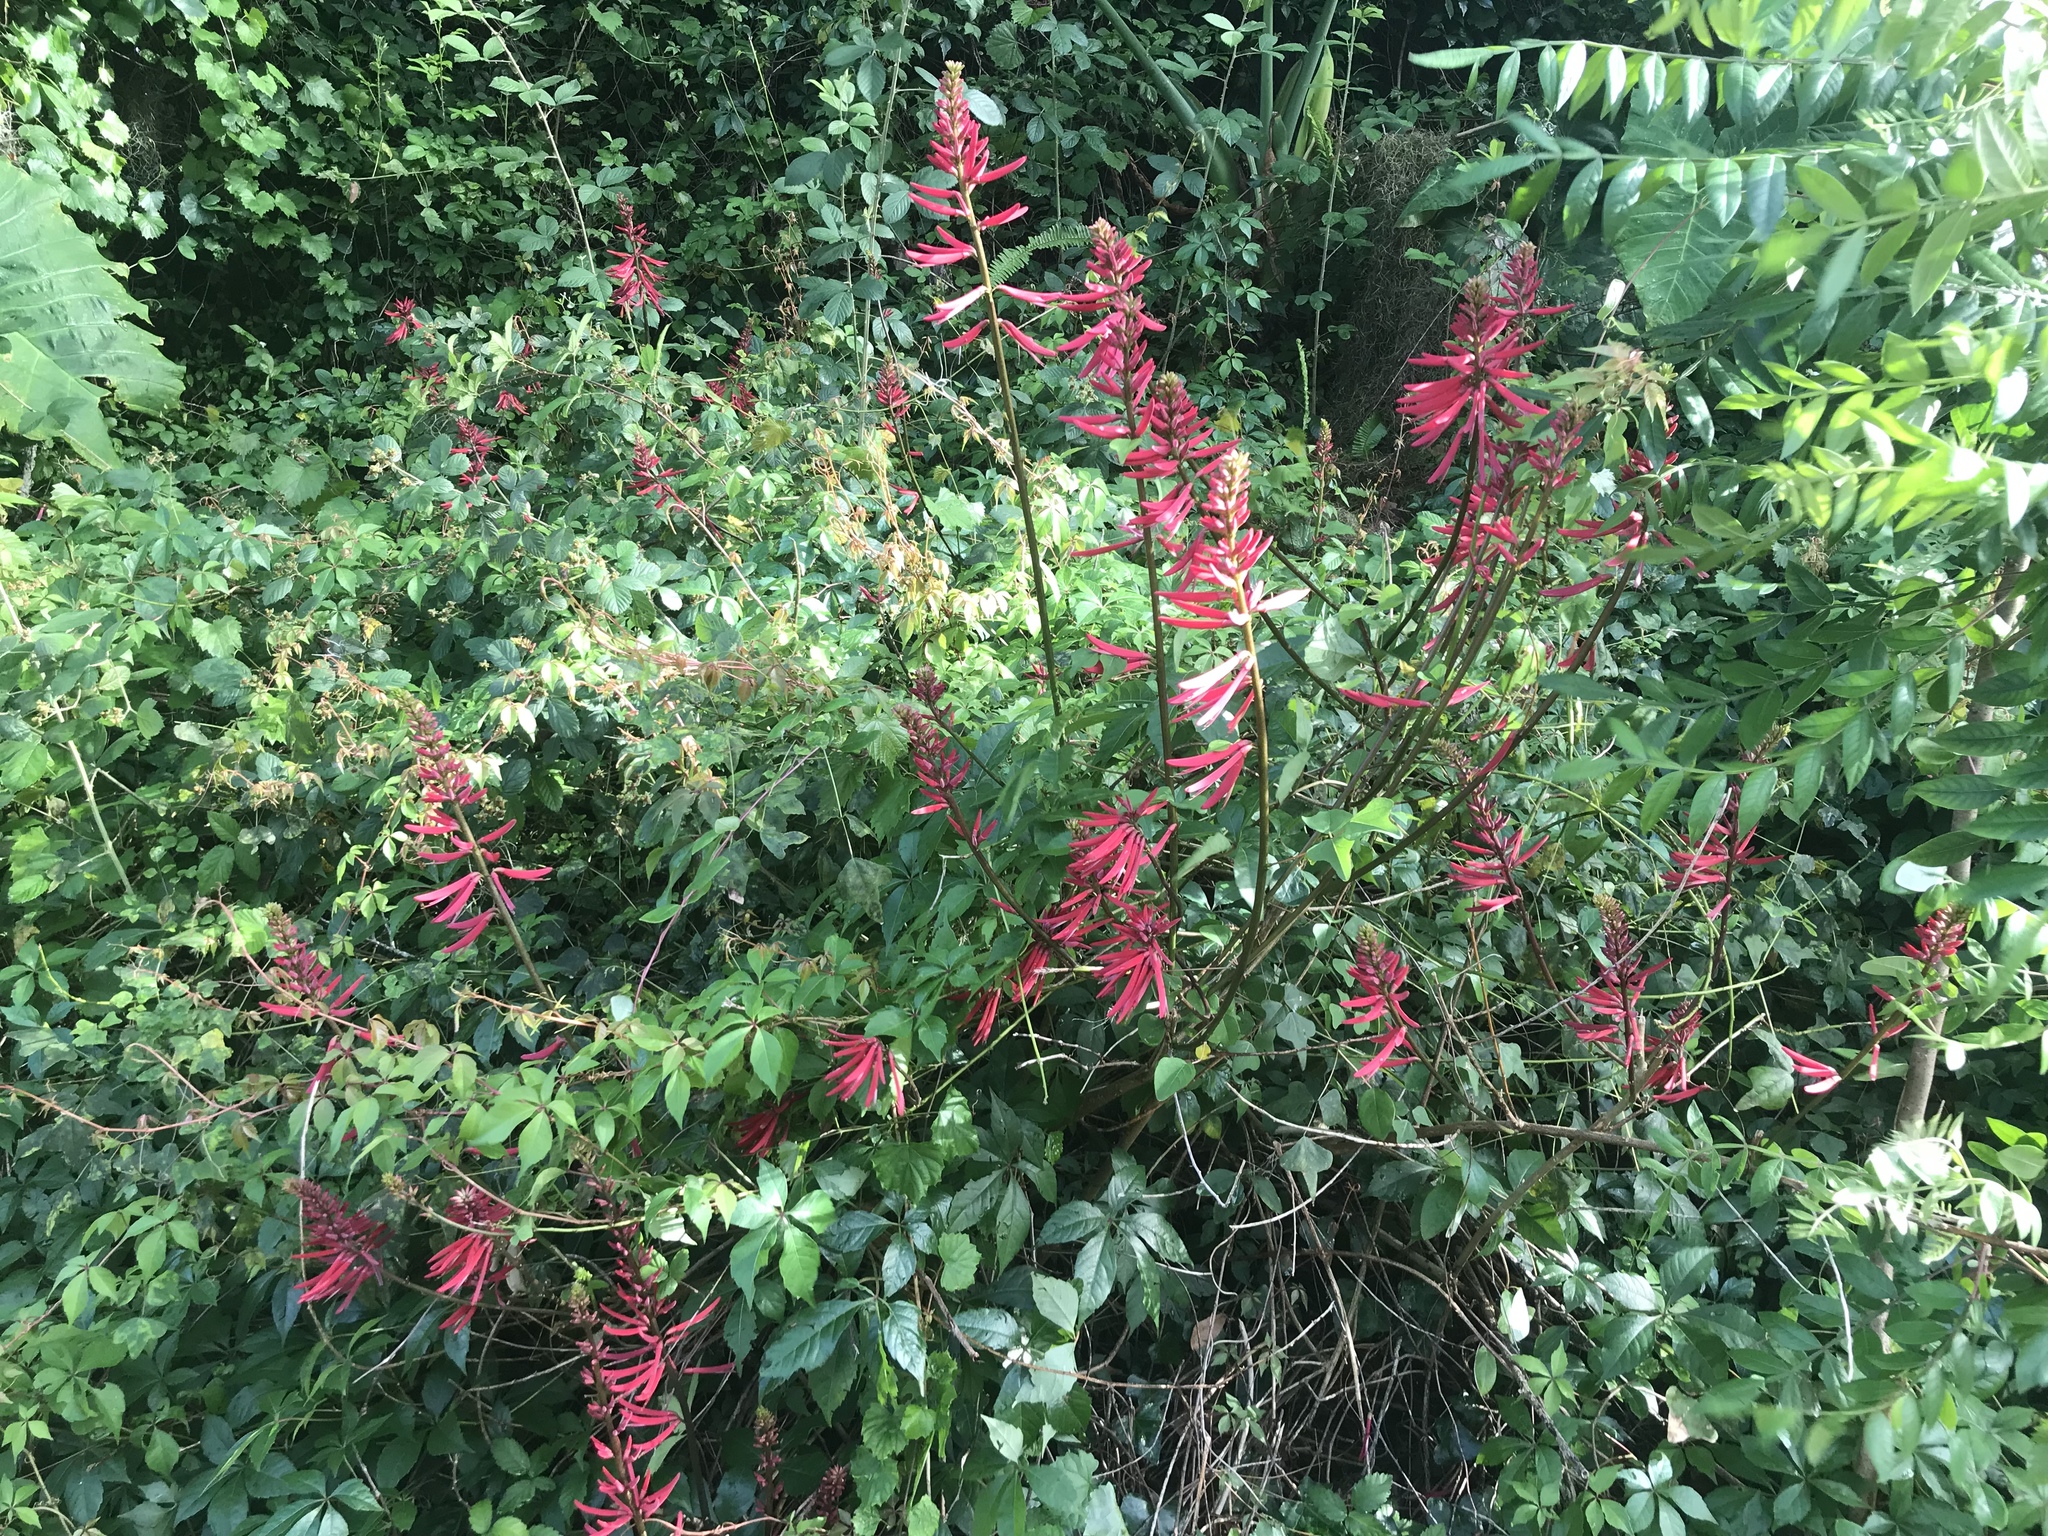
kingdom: Plantae
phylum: Tracheophyta
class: Magnoliopsida
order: Fabales
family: Fabaceae
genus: Erythrina
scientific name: Erythrina herbacea
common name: Coral-bean
